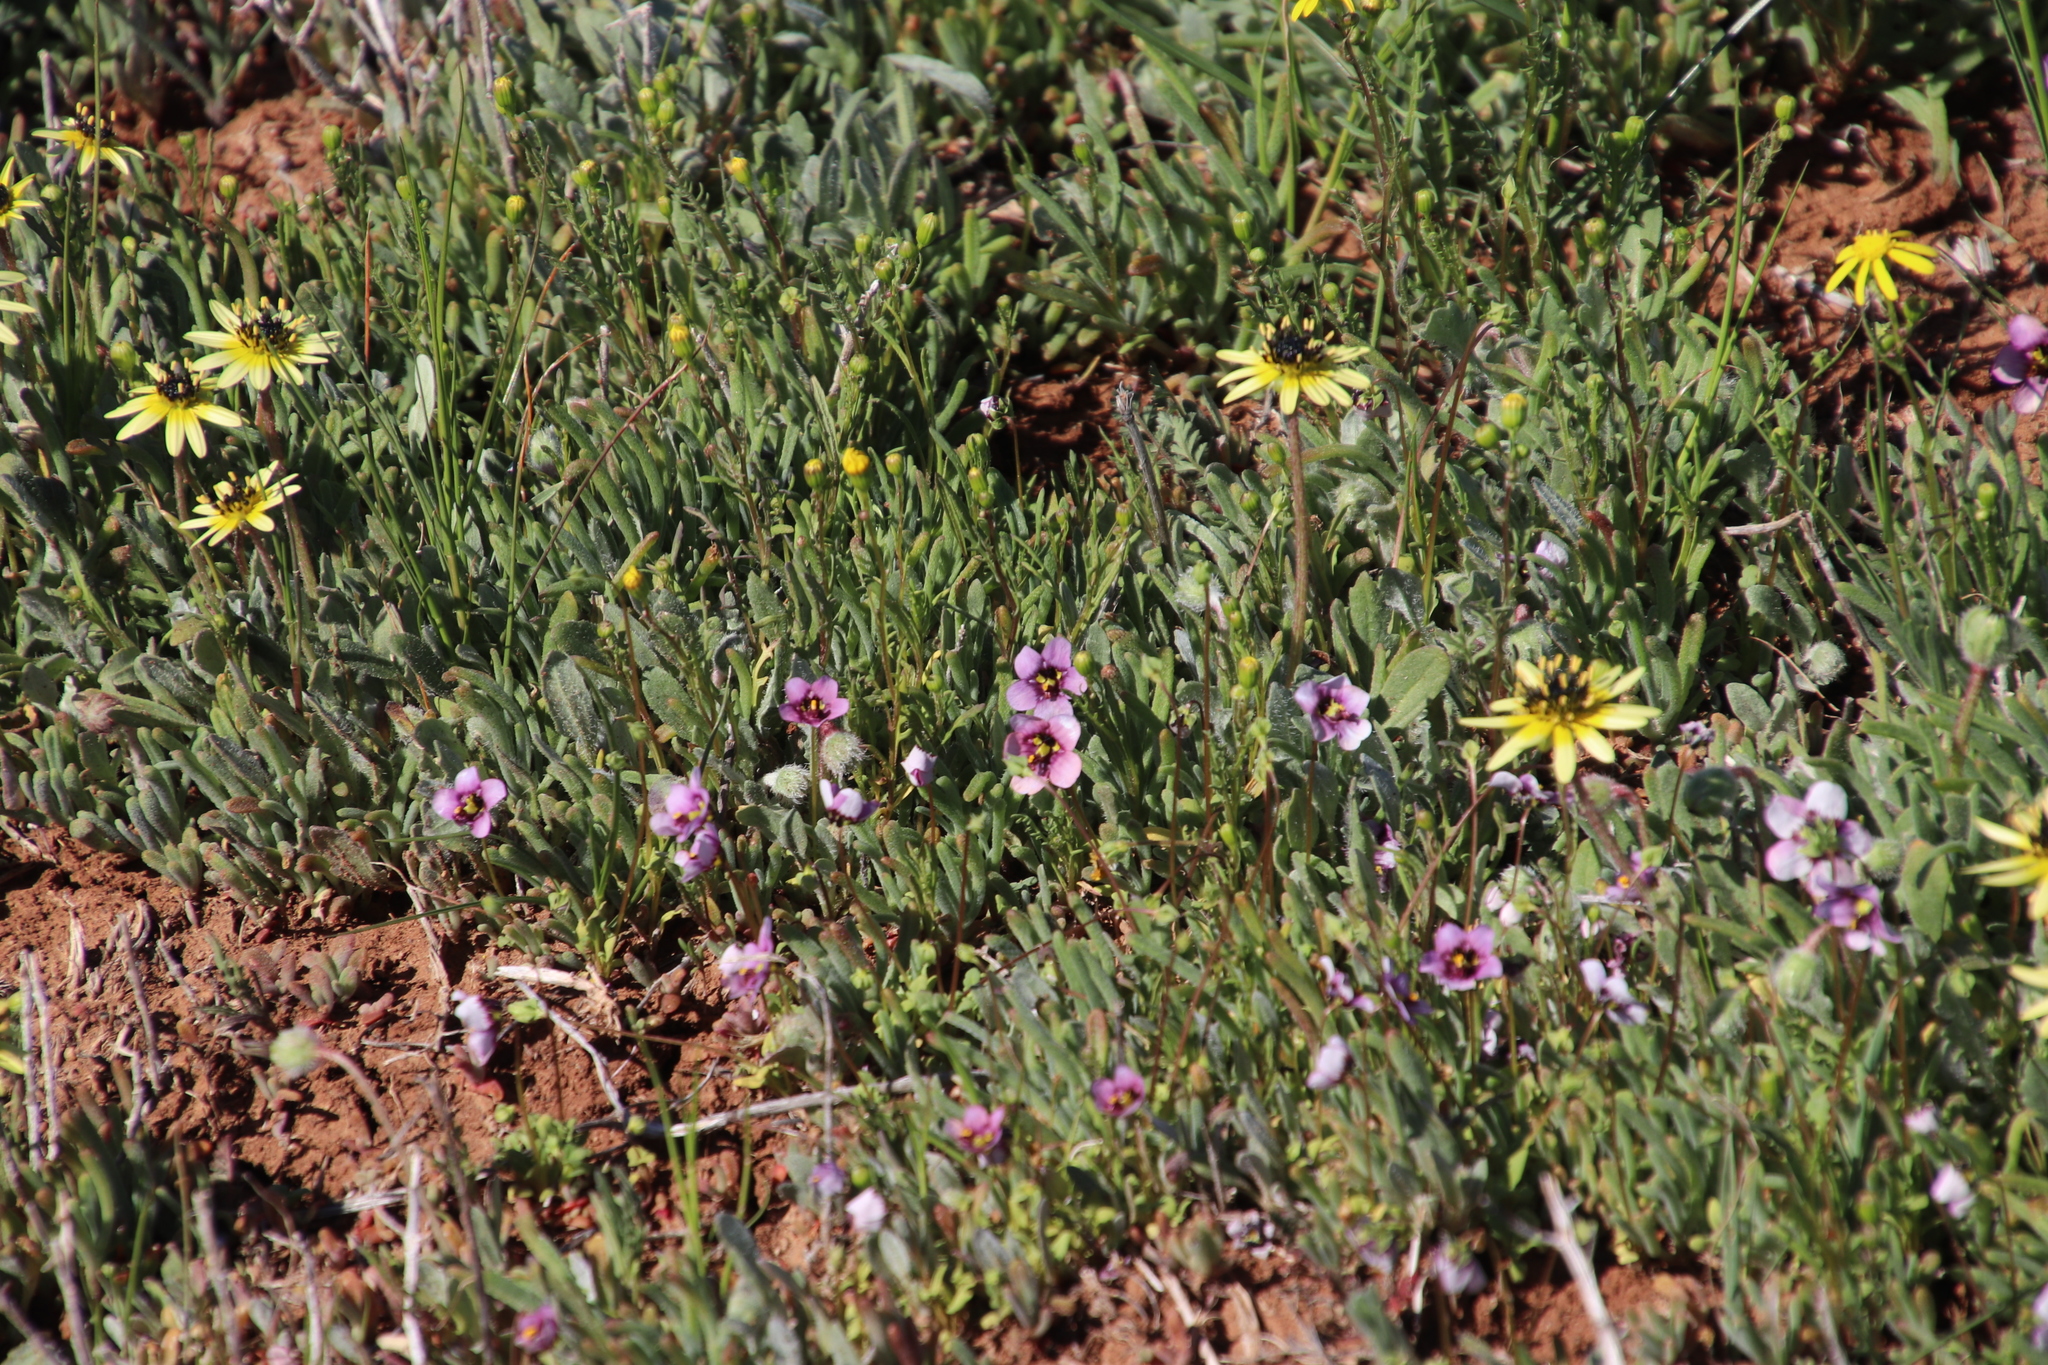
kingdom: Plantae
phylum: Tracheophyta
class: Magnoliopsida
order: Asterales
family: Asteraceae
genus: Arctotis
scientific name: Arctotis sulcocarpa
